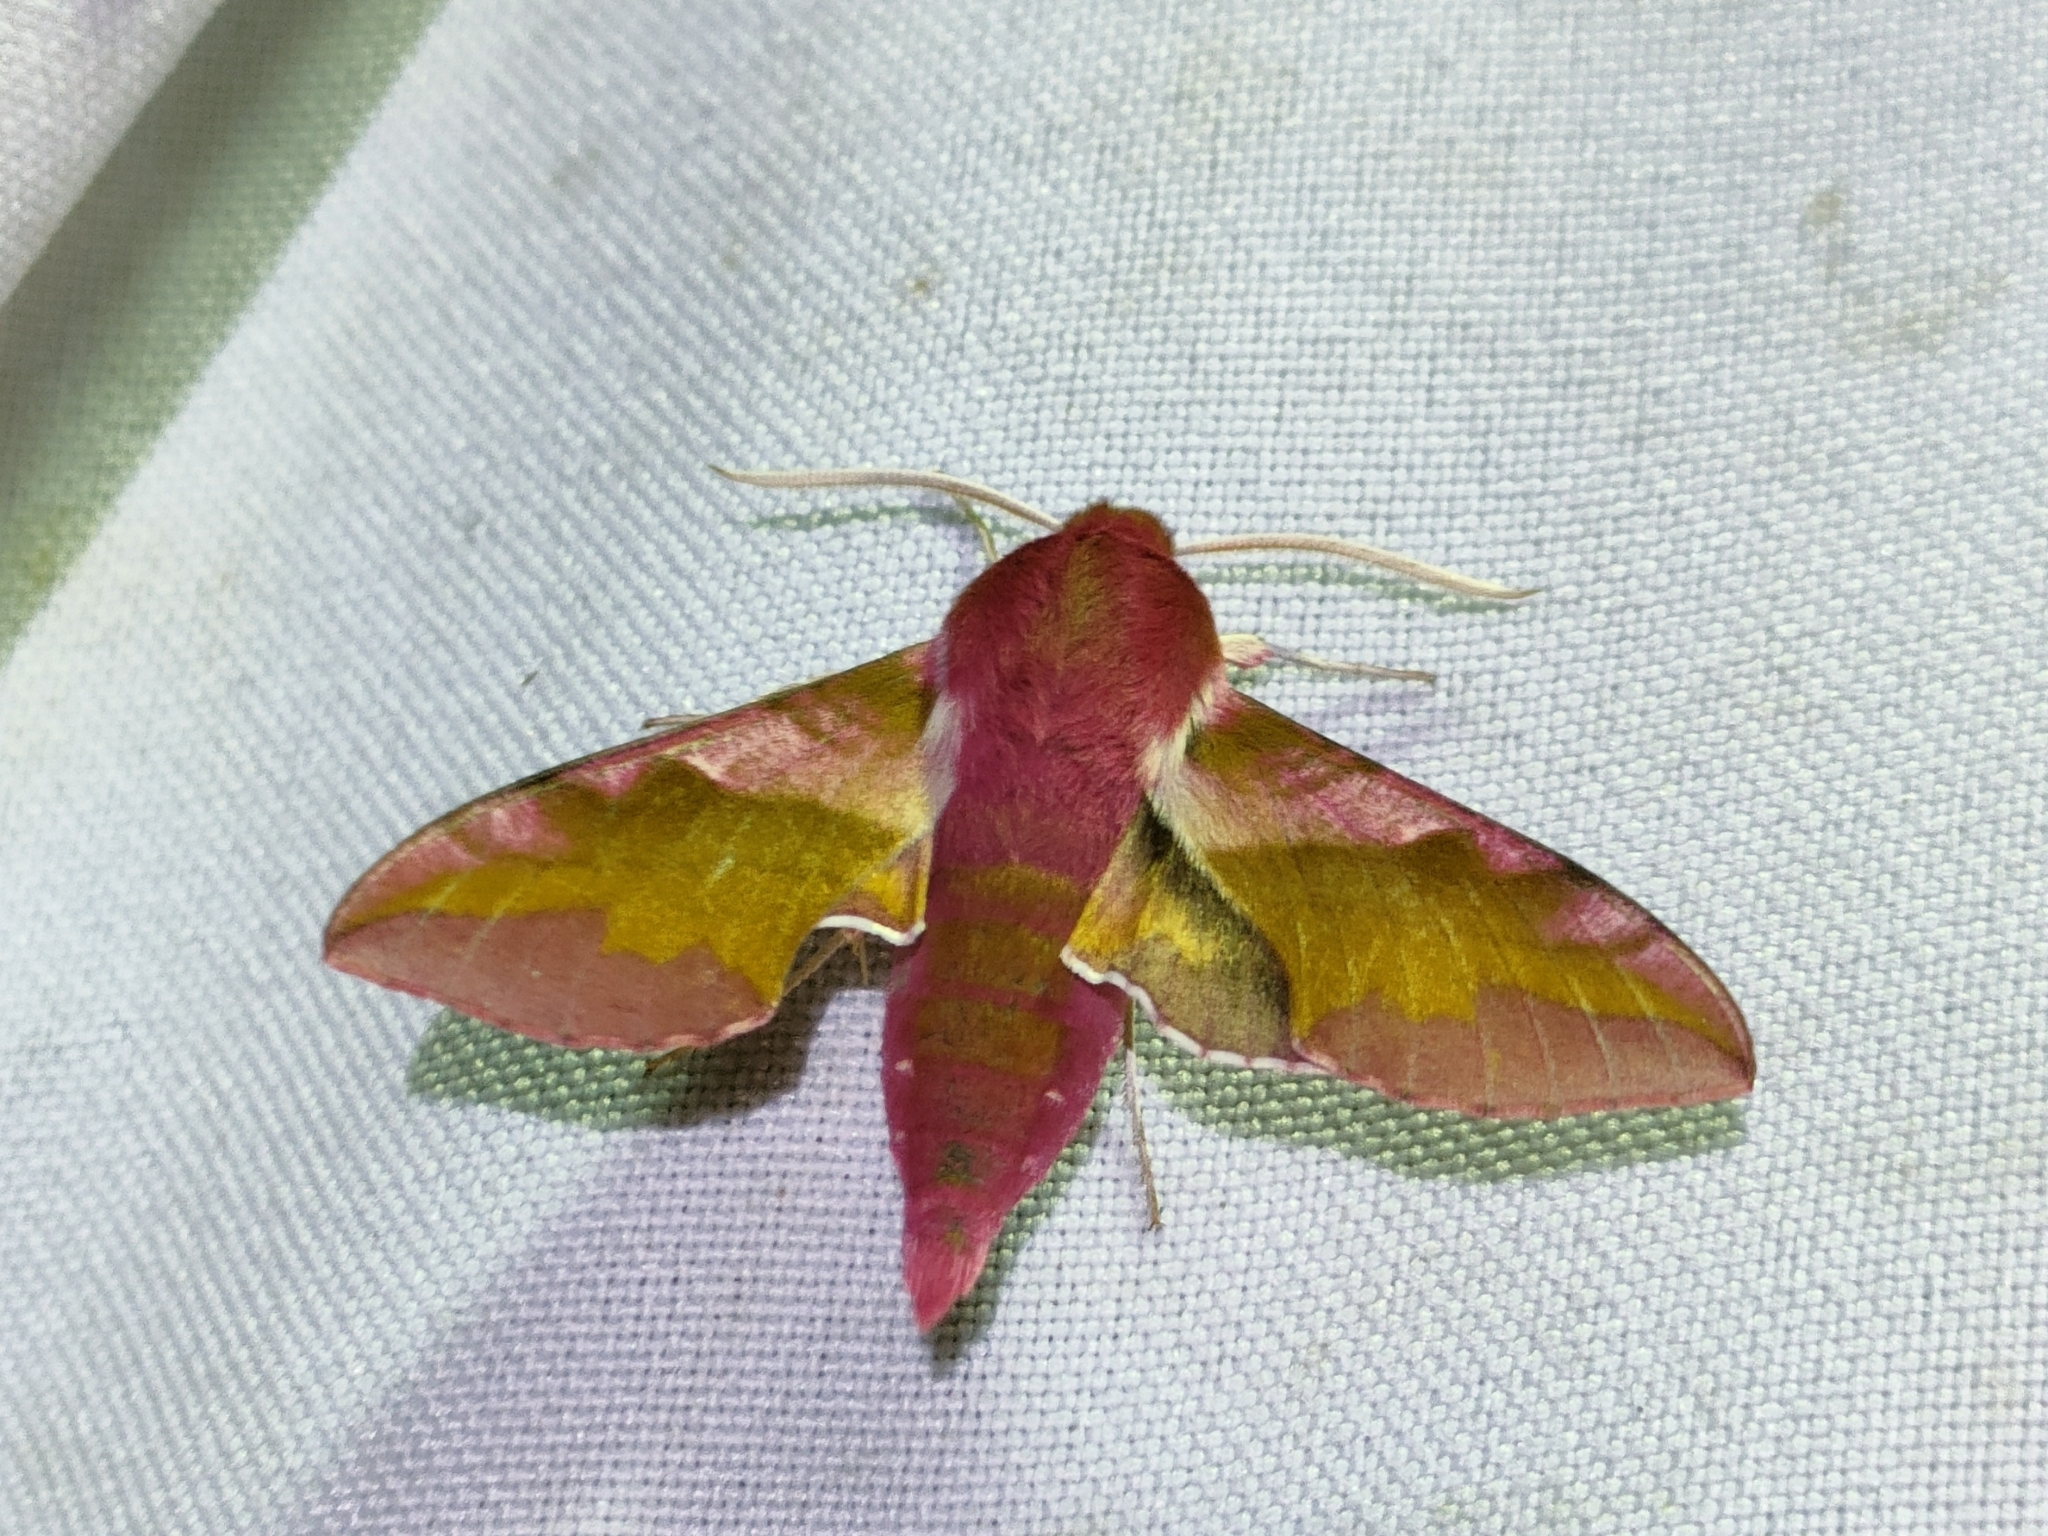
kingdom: Animalia
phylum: Arthropoda
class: Insecta
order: Lepidoptera
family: Sphingidae
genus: Deilephila
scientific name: Deilephila porcellus
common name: Small elephant hawk-moth
